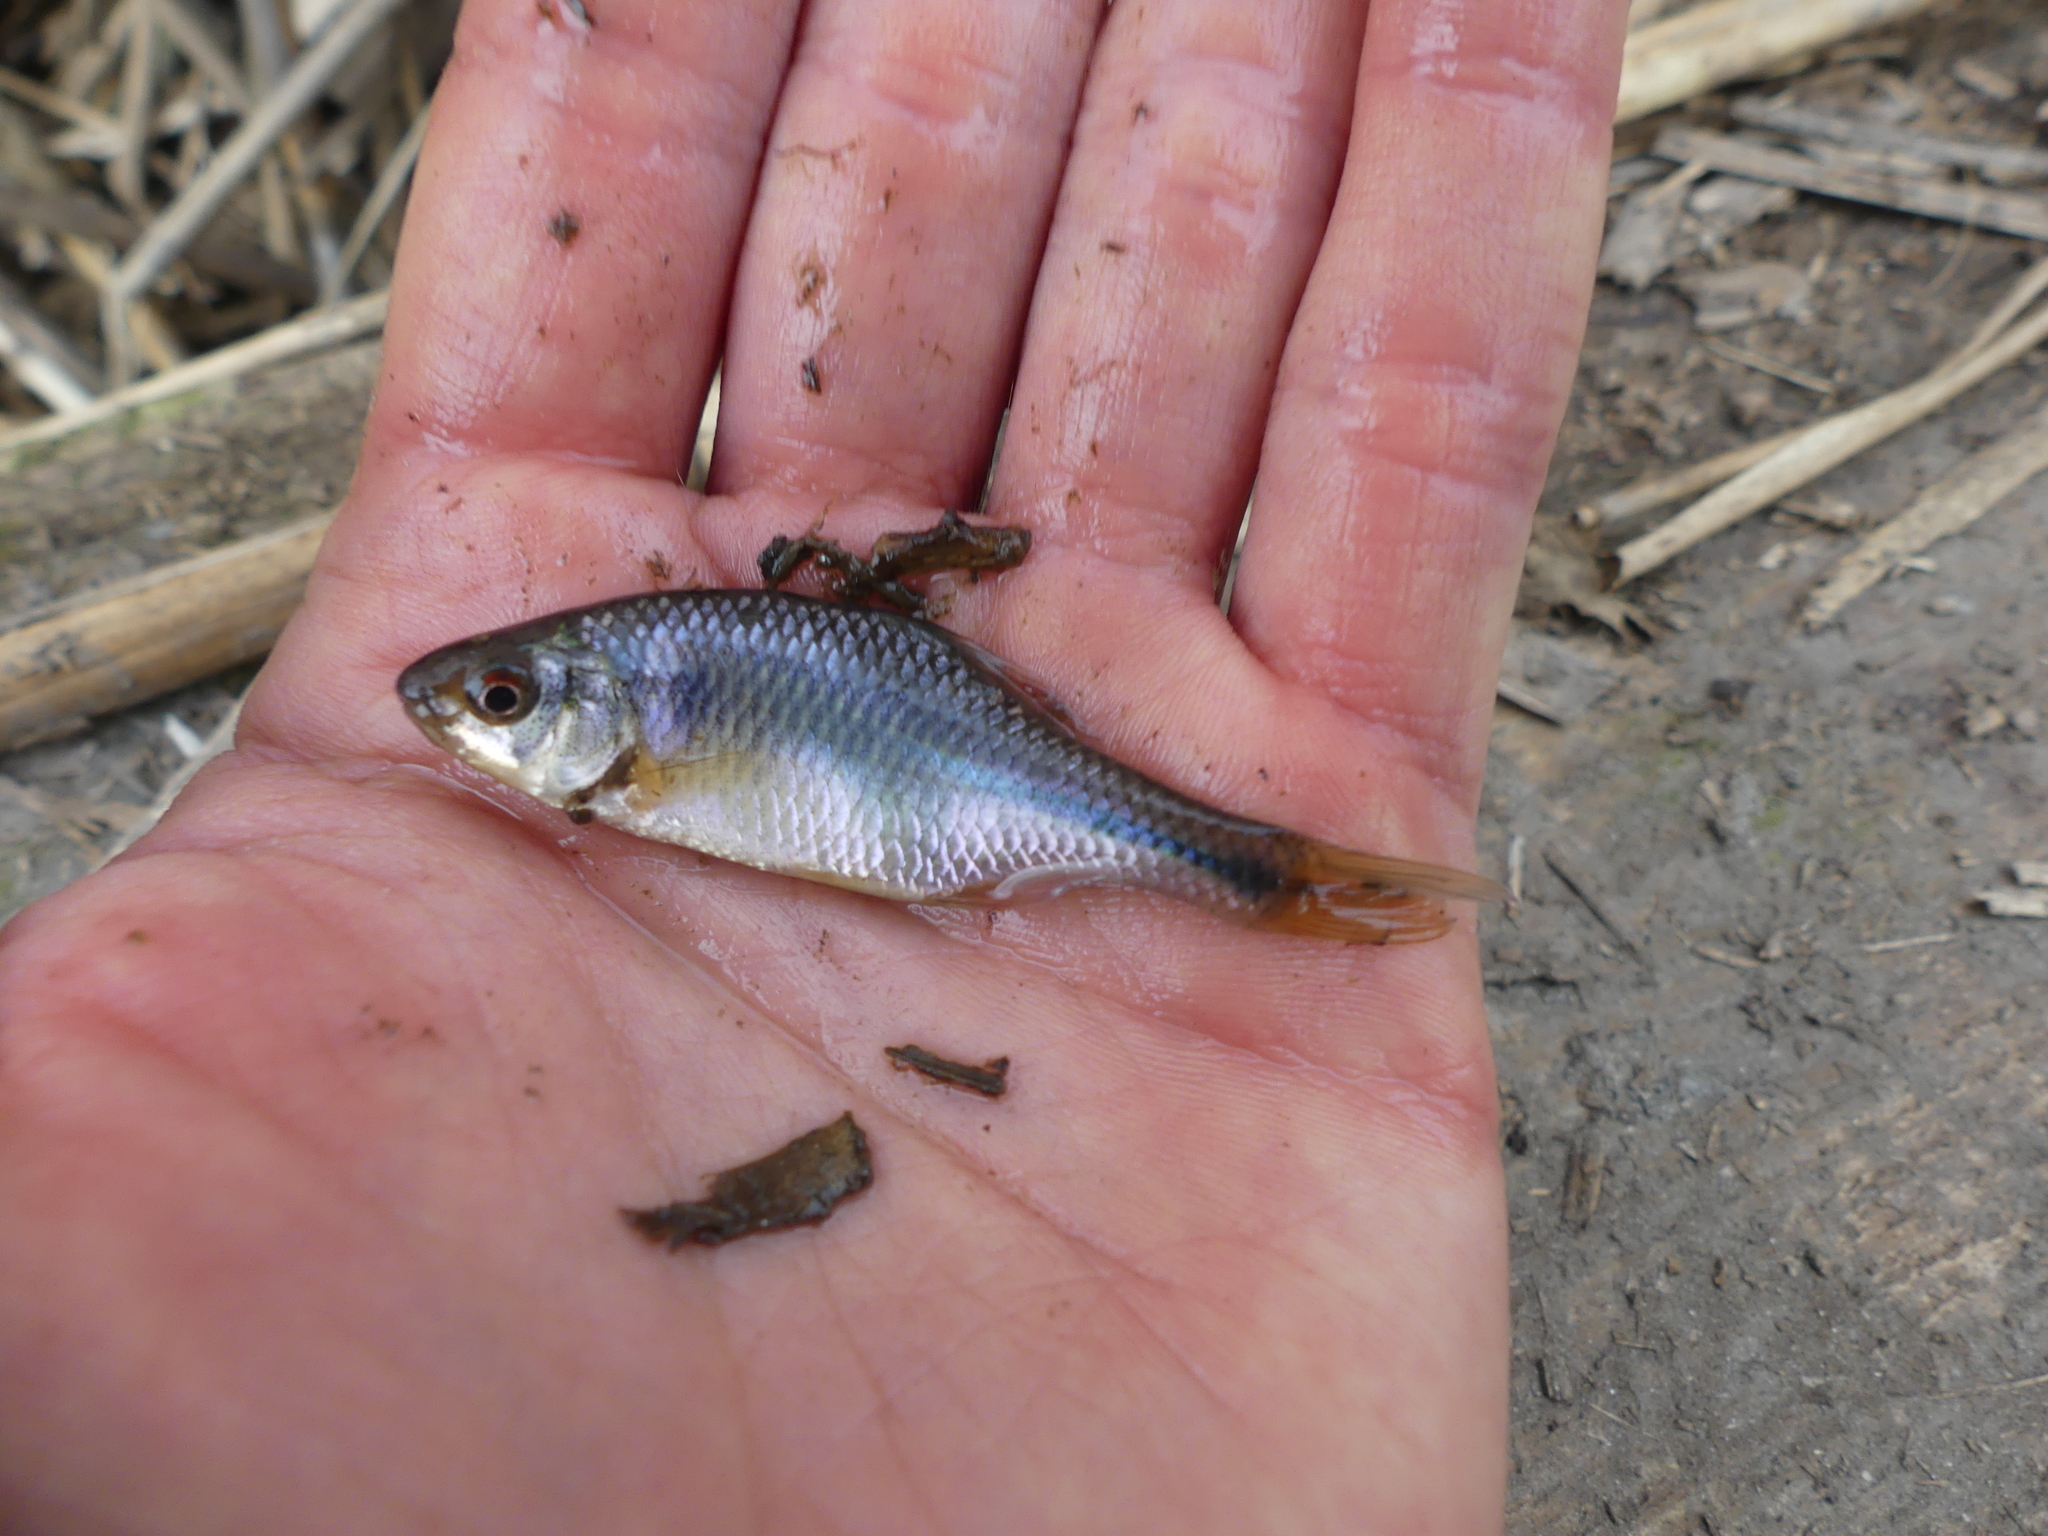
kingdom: Animalia
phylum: Chordata
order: Cypriniformes
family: Cyprinidae
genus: Rhodeus
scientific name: Rhodeus amarus
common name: Bitterling
